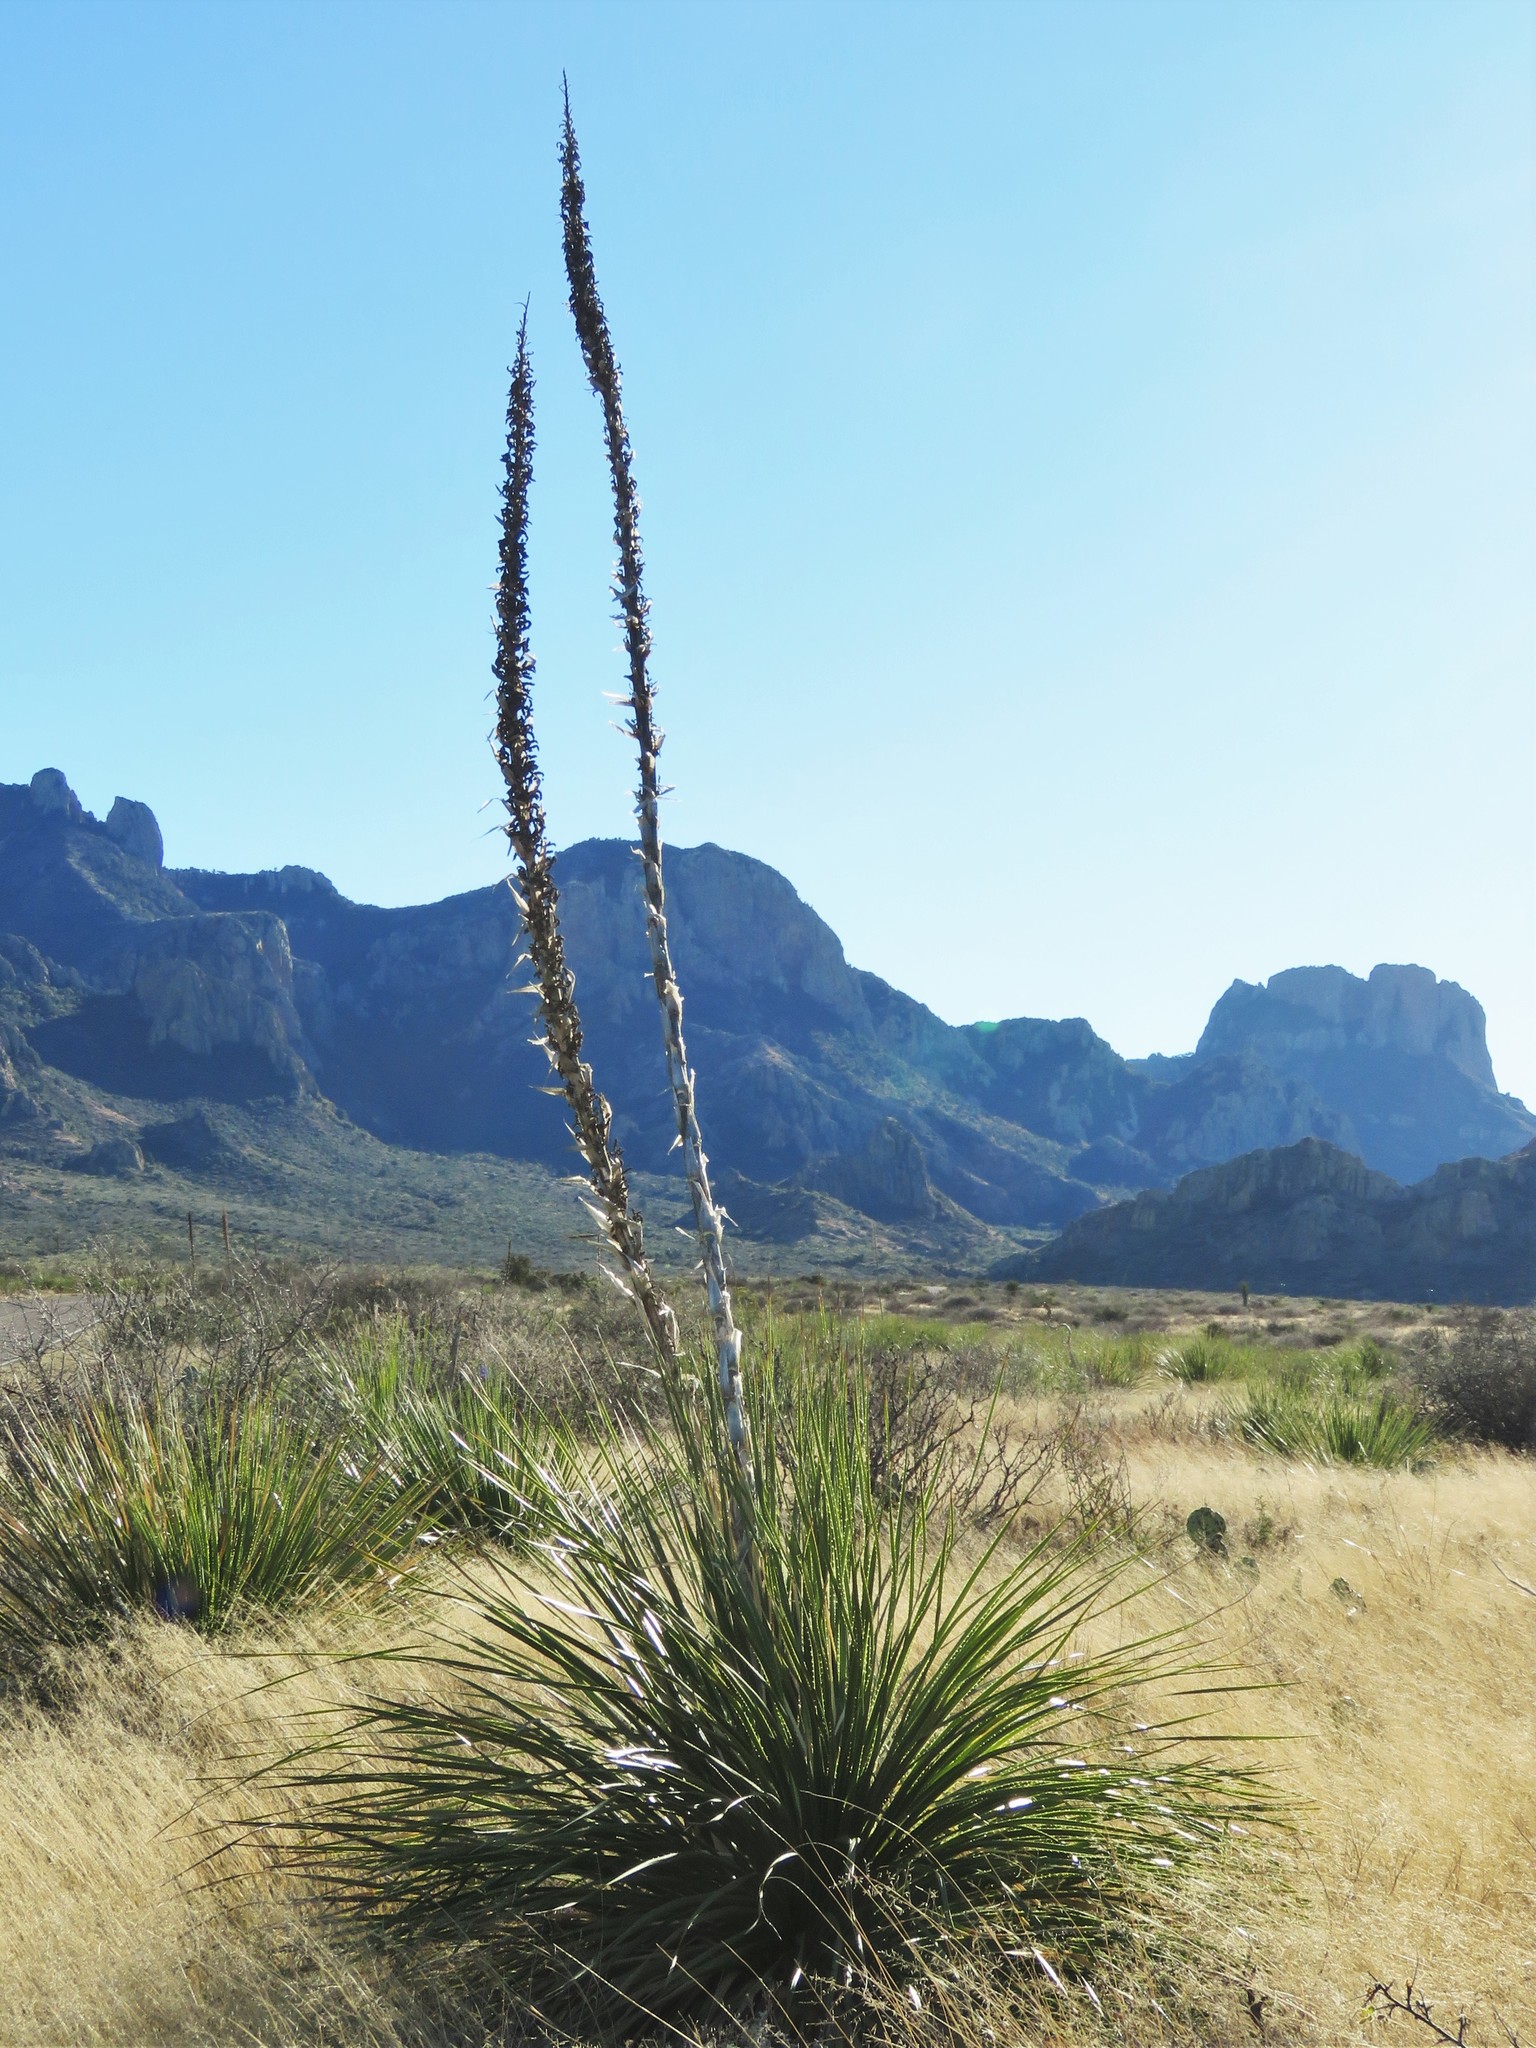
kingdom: Plantae
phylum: Tracheophyta
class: Liliopsida
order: Asparagales
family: Asparagaceae
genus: Dasylirion
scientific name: Dasylirion leiophyllum
